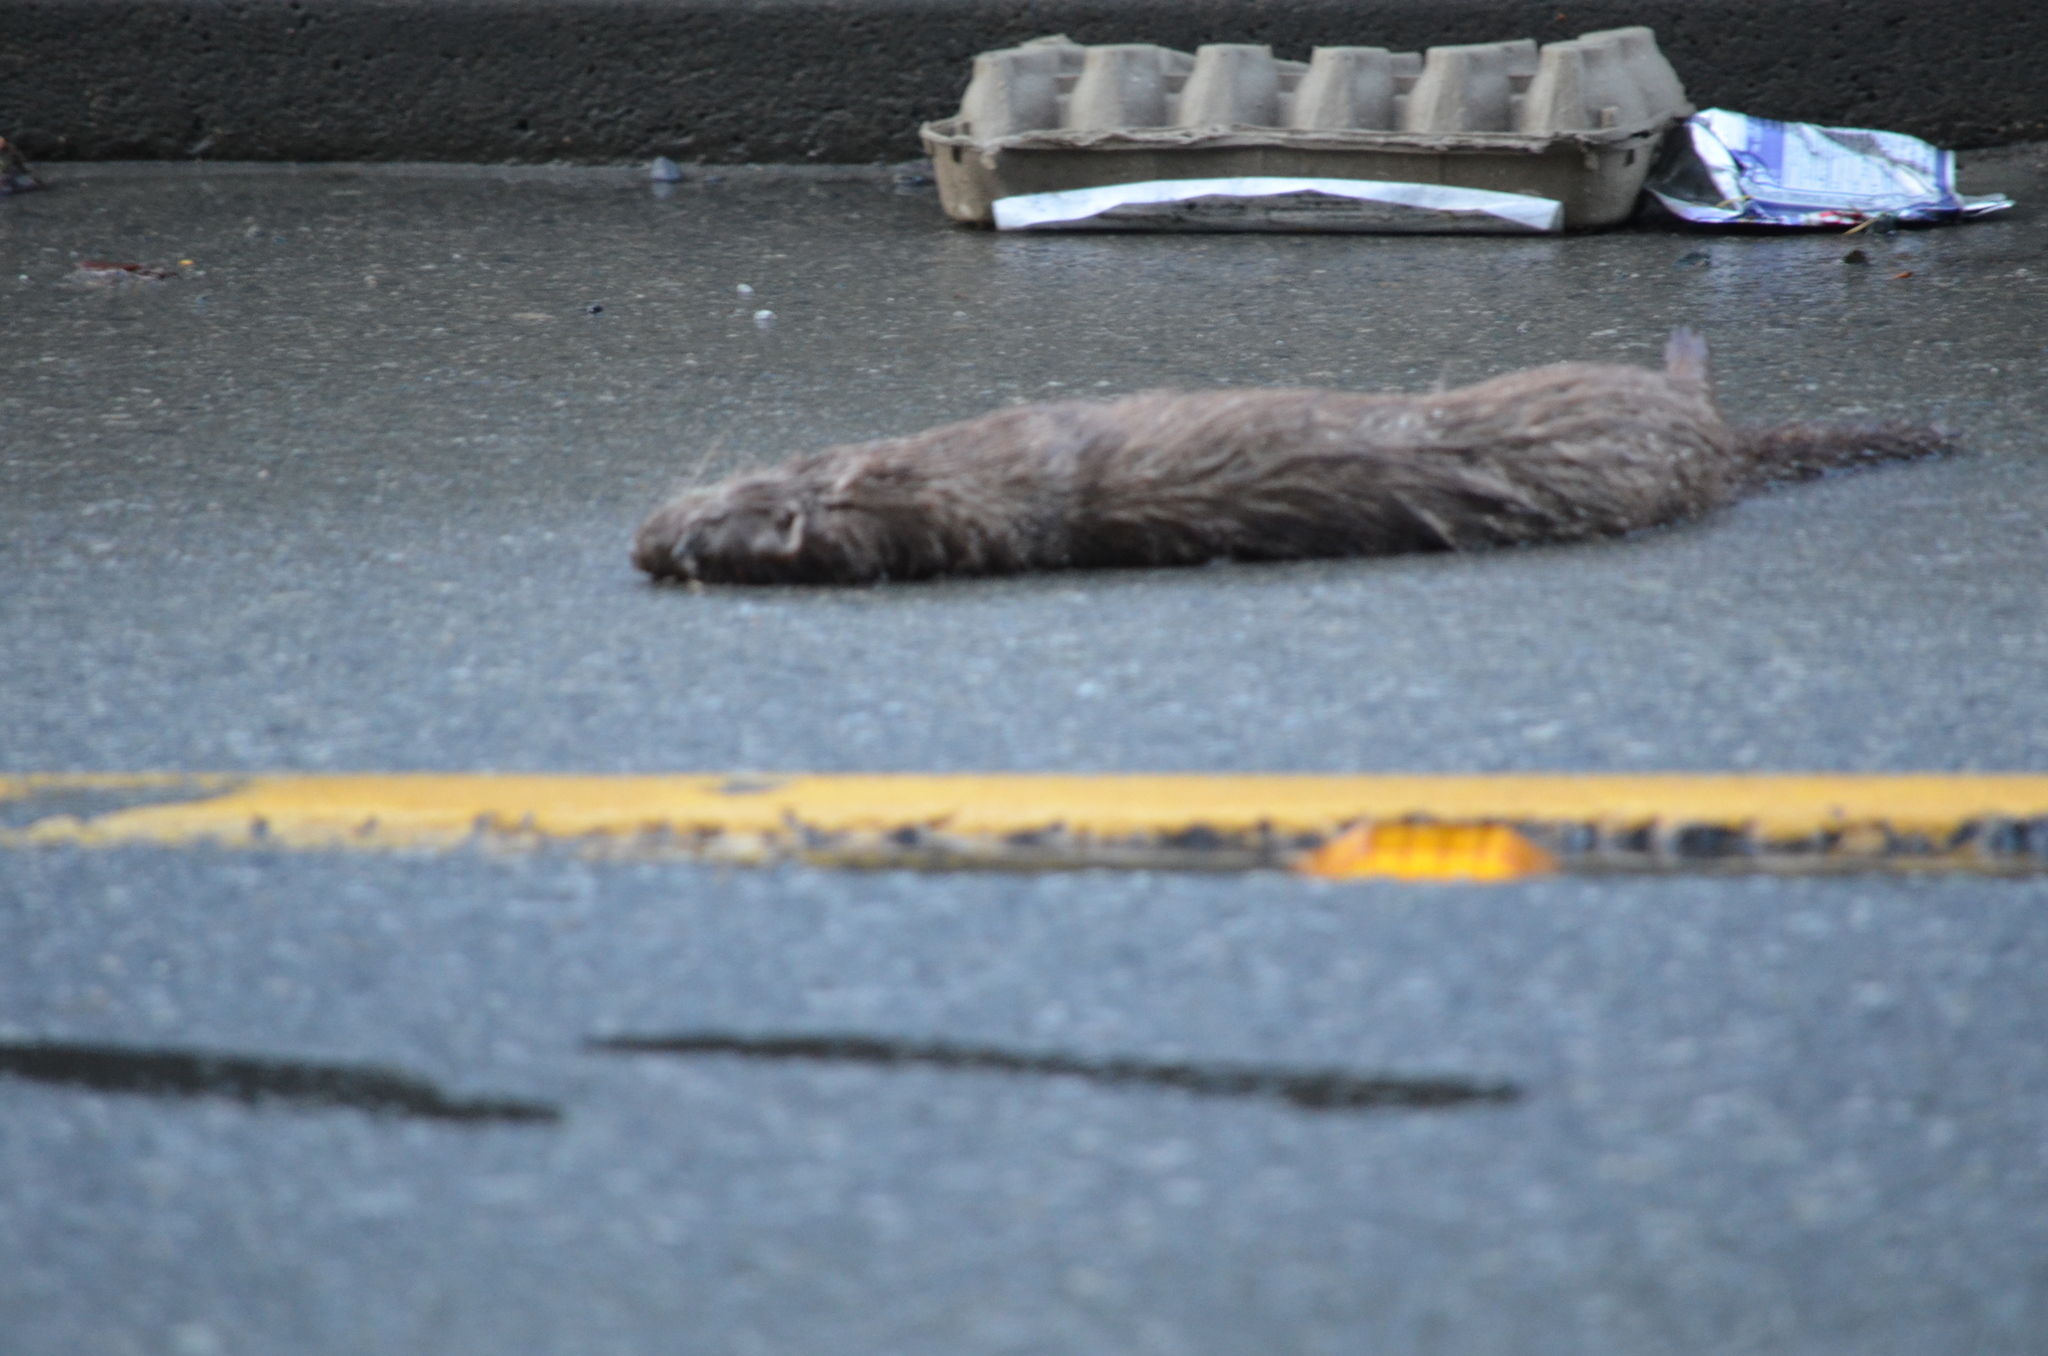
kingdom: Animalia
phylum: Chordata
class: Mammalia
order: Carnivora
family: Mustelidae
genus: Mustela
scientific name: Mustela
